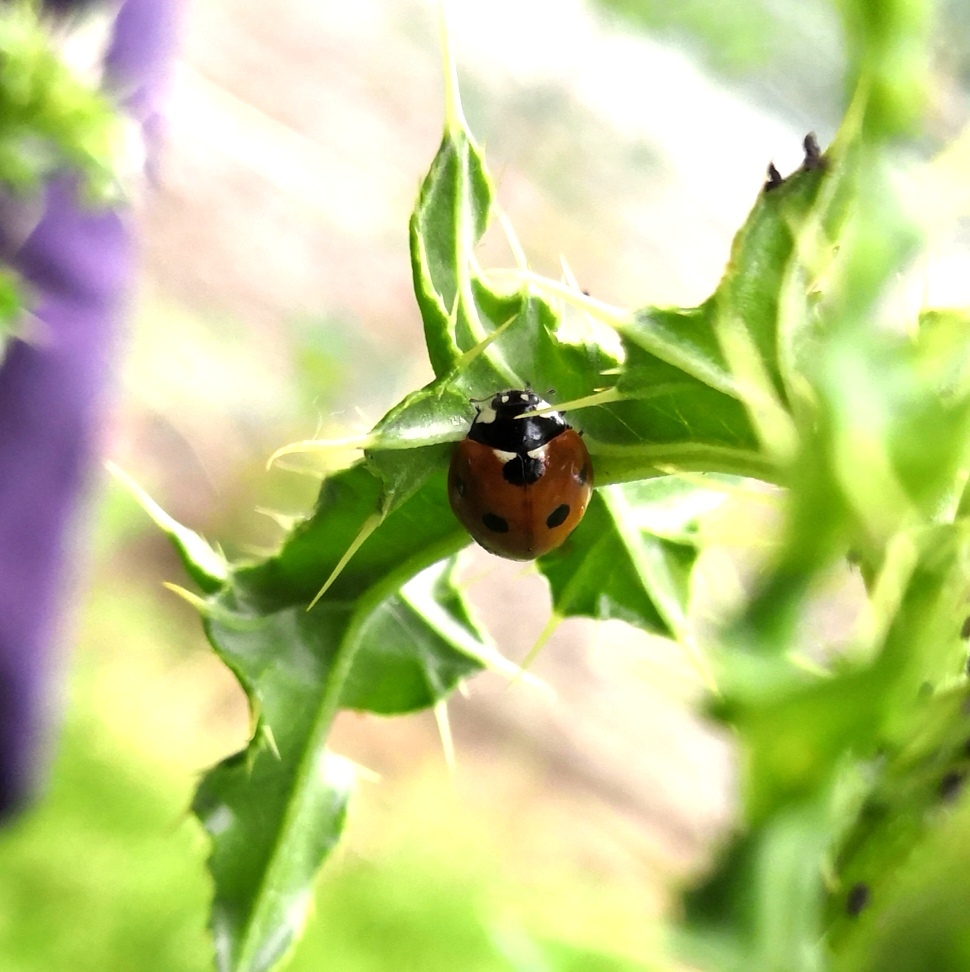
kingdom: Animalia
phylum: Arthropoda
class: Insecta
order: Coleoptera
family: Coccinellidae
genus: Coccinella
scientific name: Coccinella septempunctata
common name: Sevenspotted lady beetle
